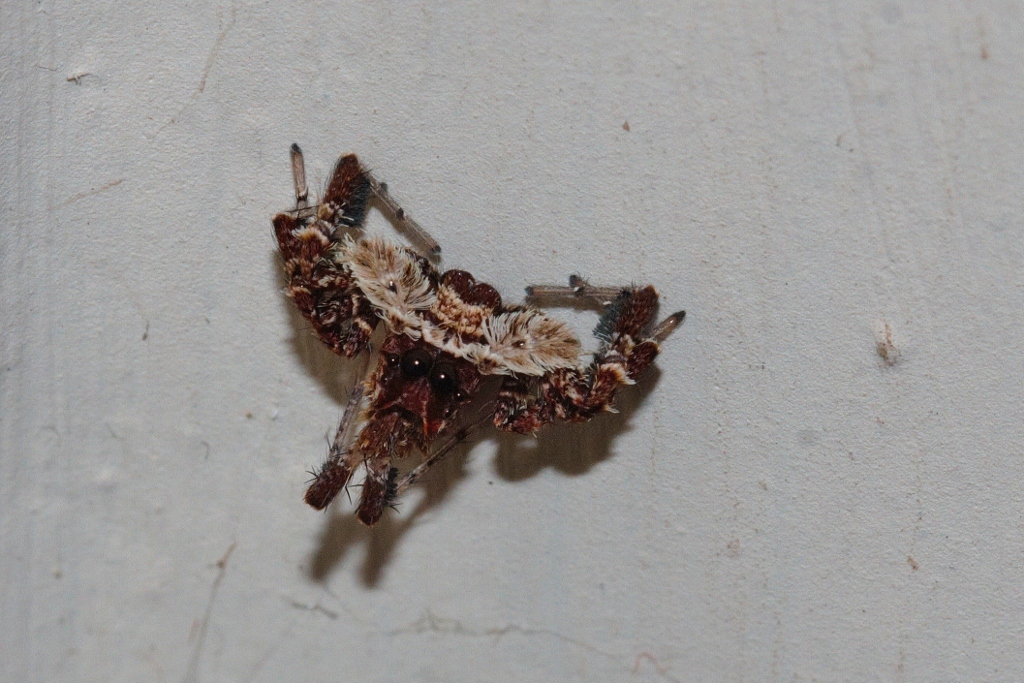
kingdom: Animalia
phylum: Arthropoda
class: Arachnida
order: Araneae
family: Salticidae
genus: Portia
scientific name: Portia schultzi
